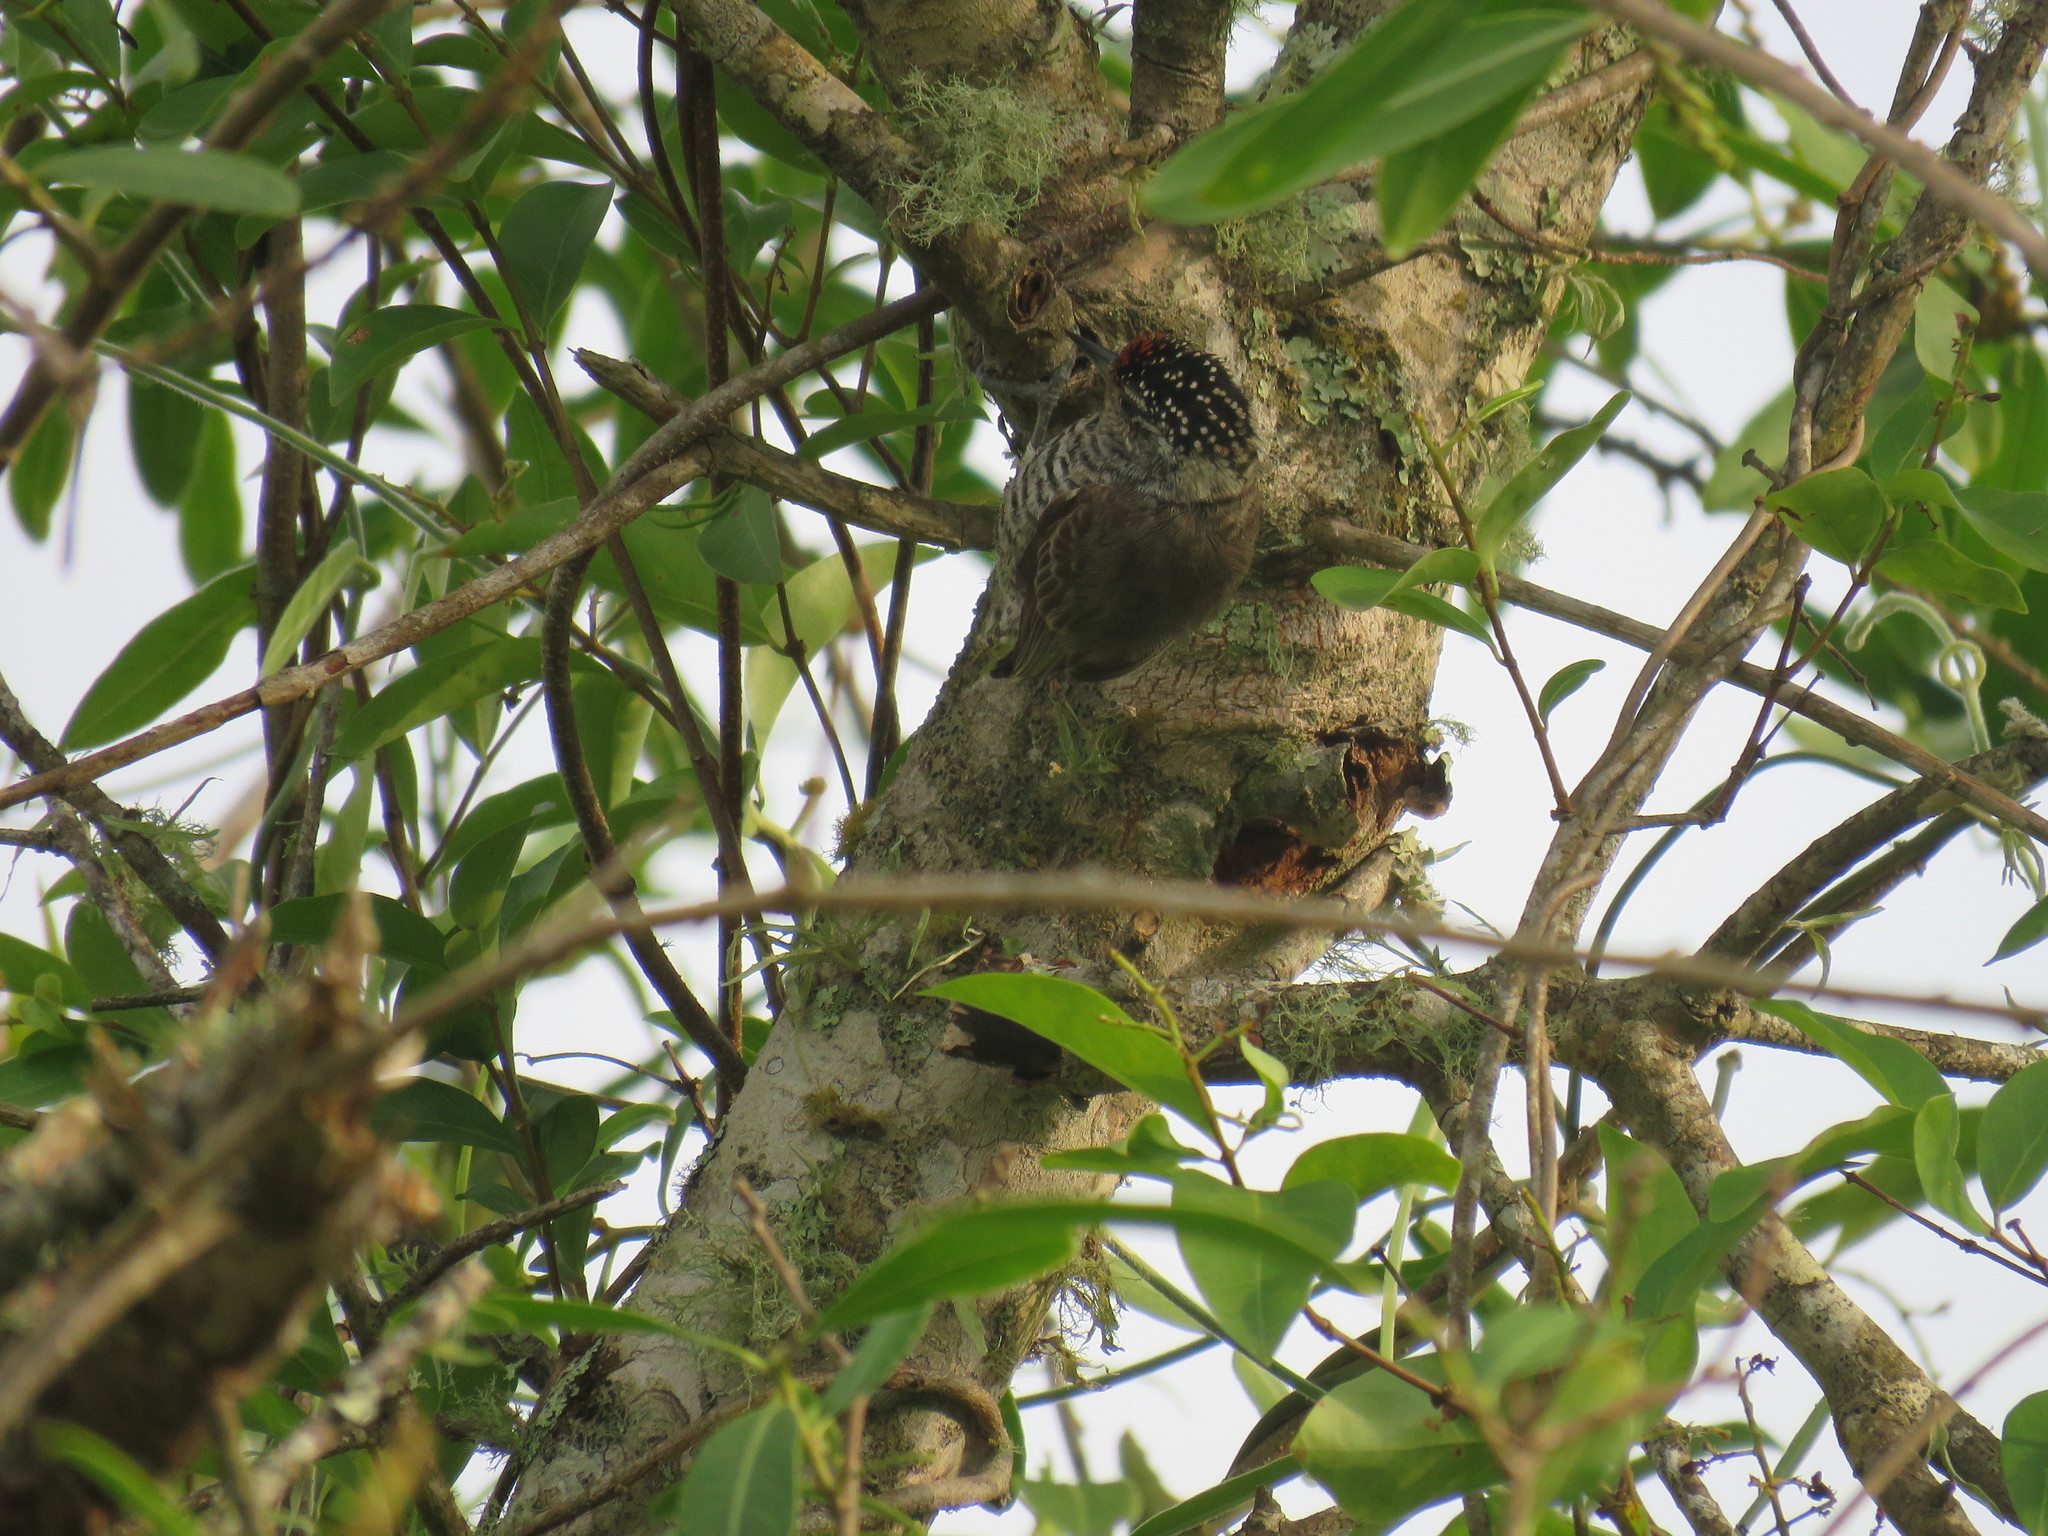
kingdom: Animalia
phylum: Chordata
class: Aves
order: Piciformes
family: Picidae
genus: Picumnus
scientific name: Picumnus cirratus
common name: White-barred piculet
